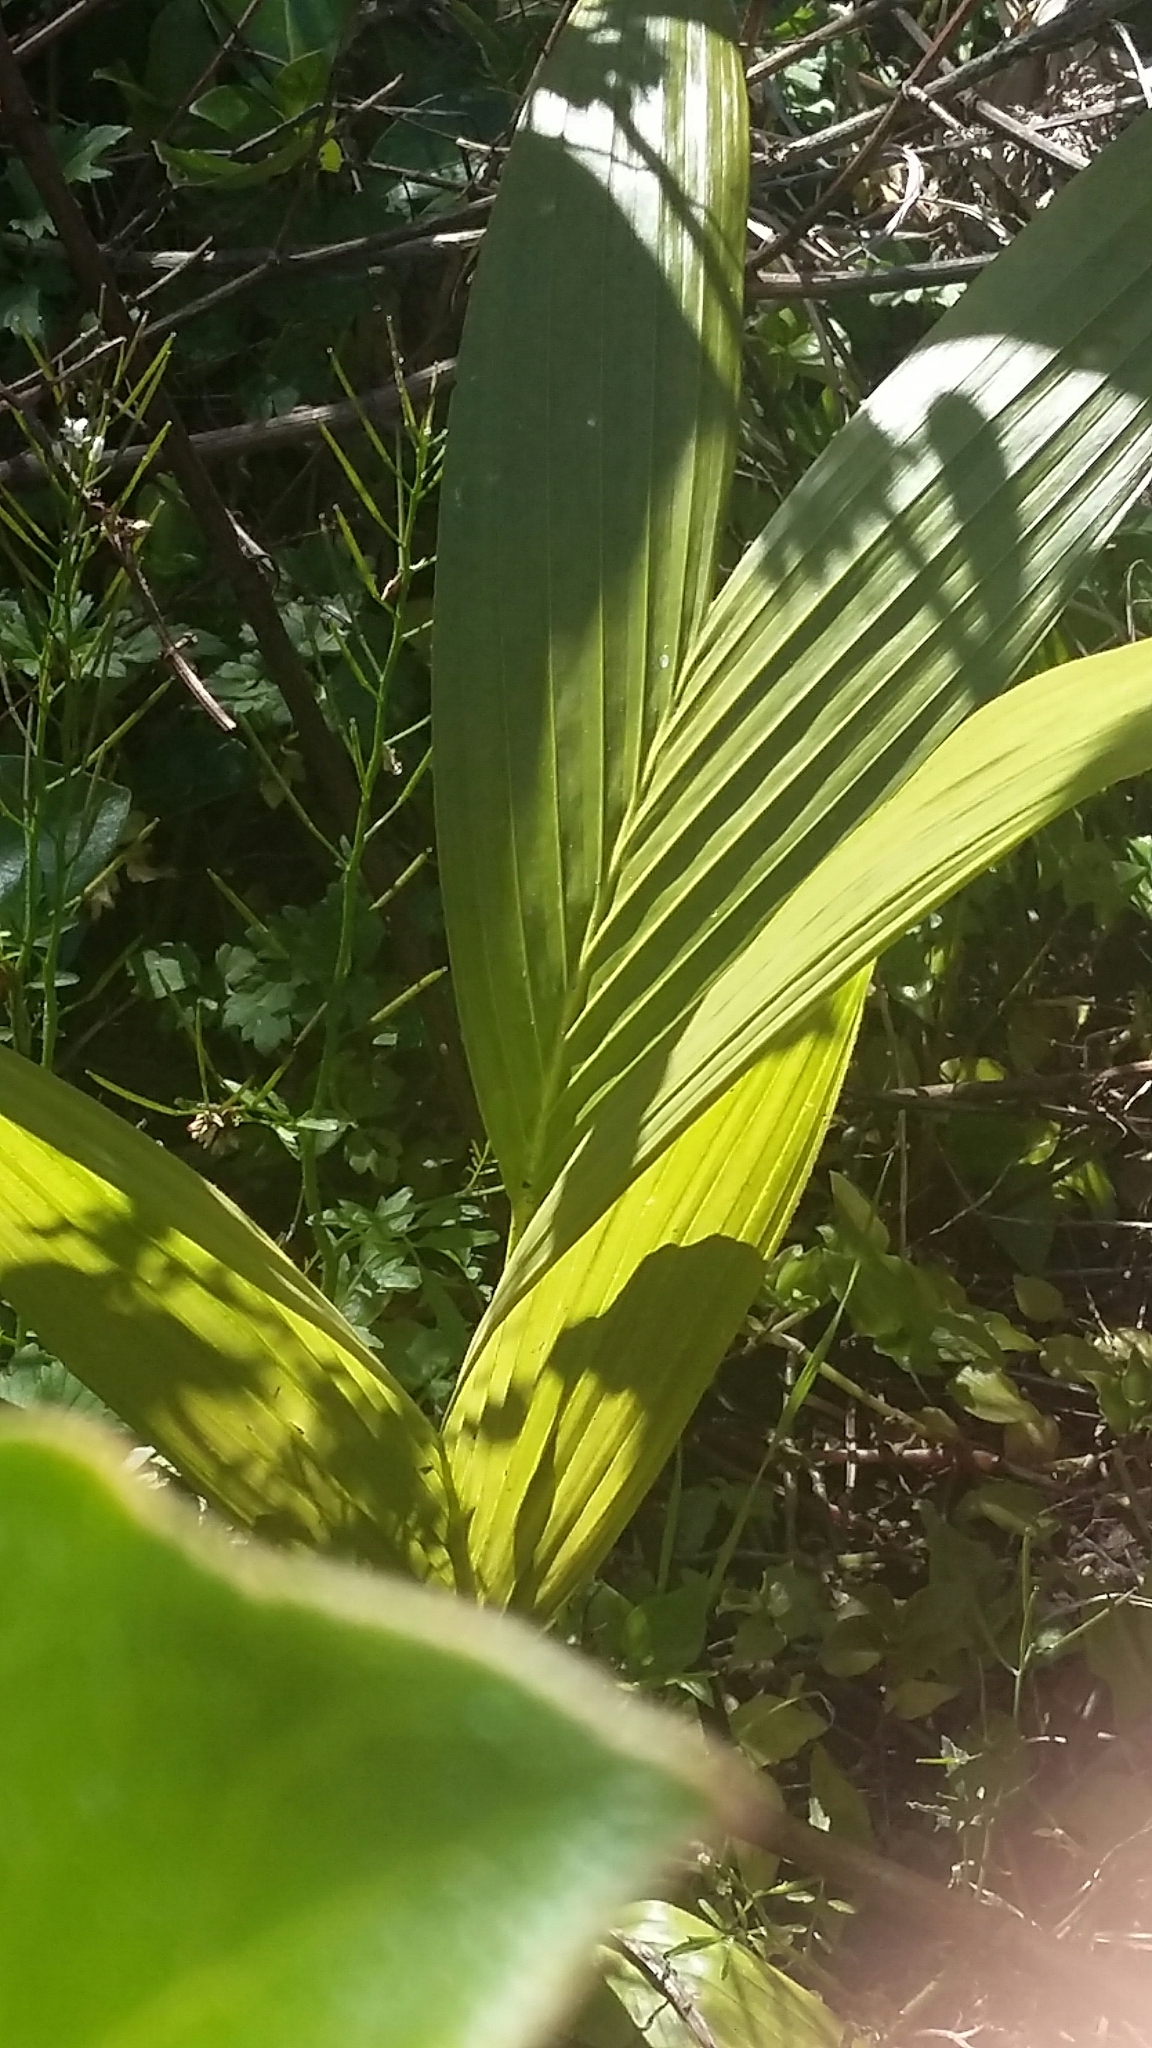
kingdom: Plantae
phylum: Tracheophyta
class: Liliopsida
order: Arecales
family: Arecaceae
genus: Archontophoenix
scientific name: Archontophoenix cunninghamiana
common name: Piccabeen bangalow palm
